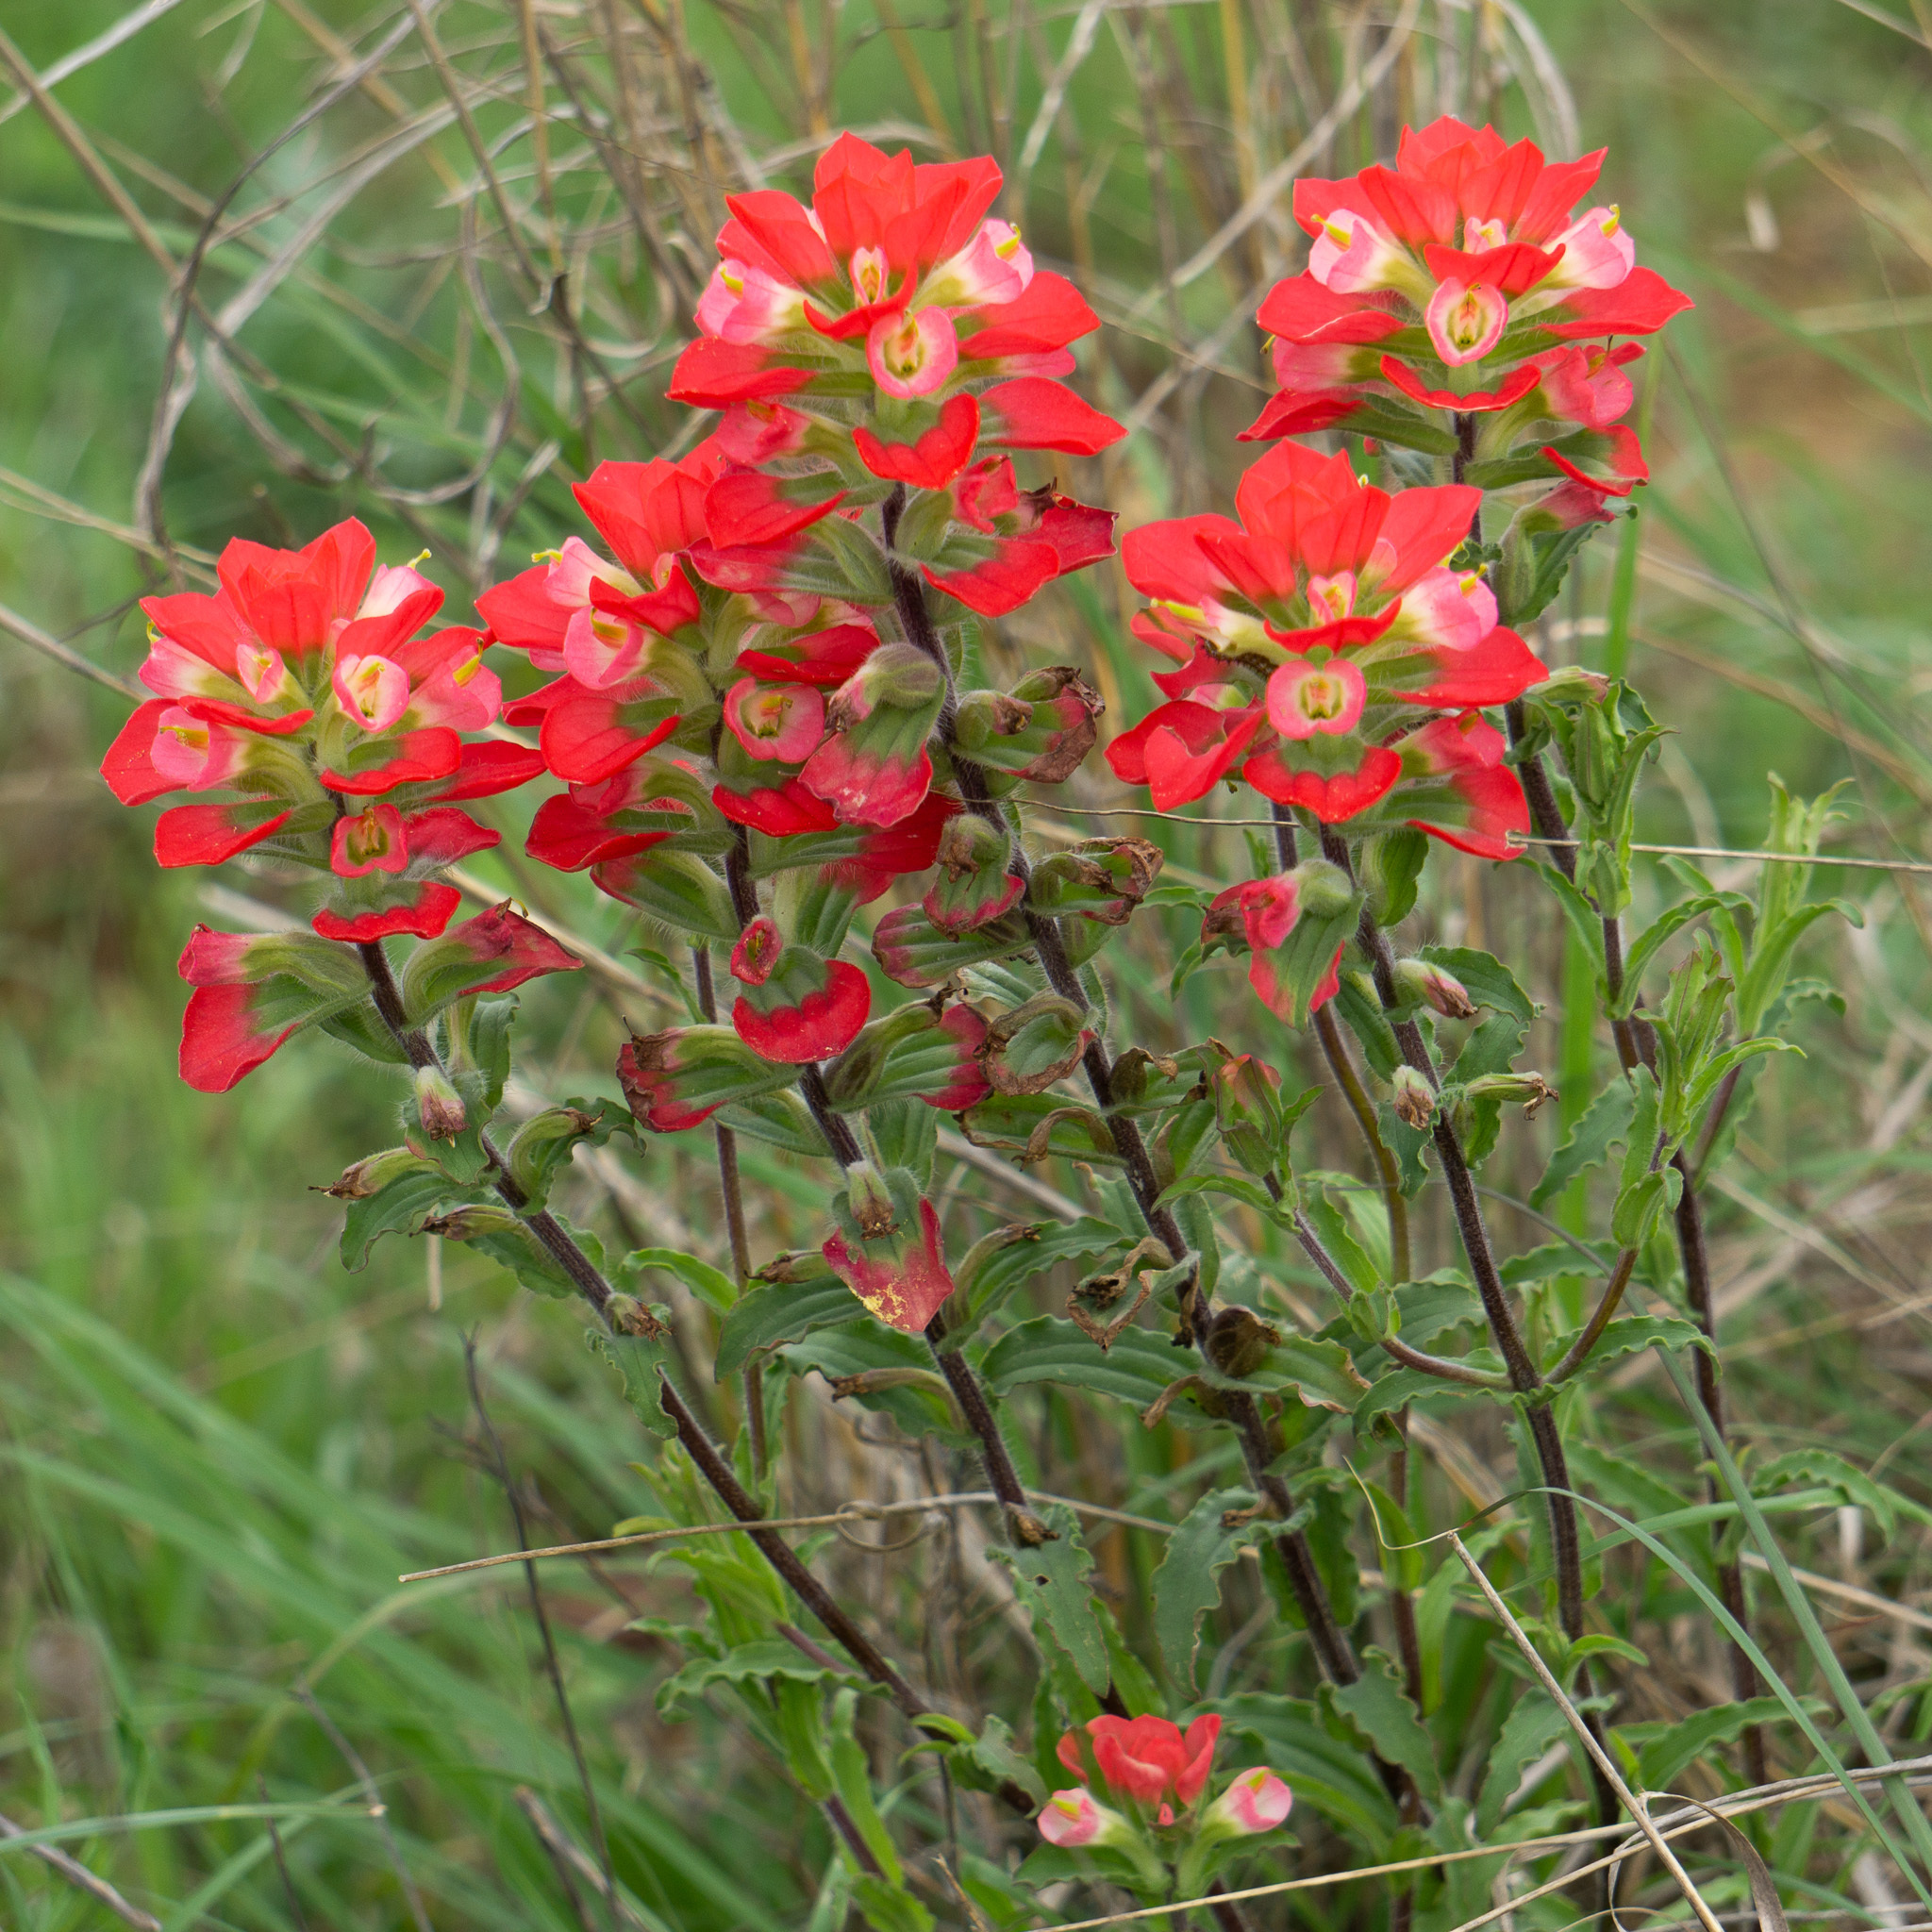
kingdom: Plantae
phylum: Tracheophyta
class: Magnoliopsida
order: Lamiales
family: Orobanchaceae
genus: Castilleja
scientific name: Castilleja indivisa
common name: Texas paintbrush
